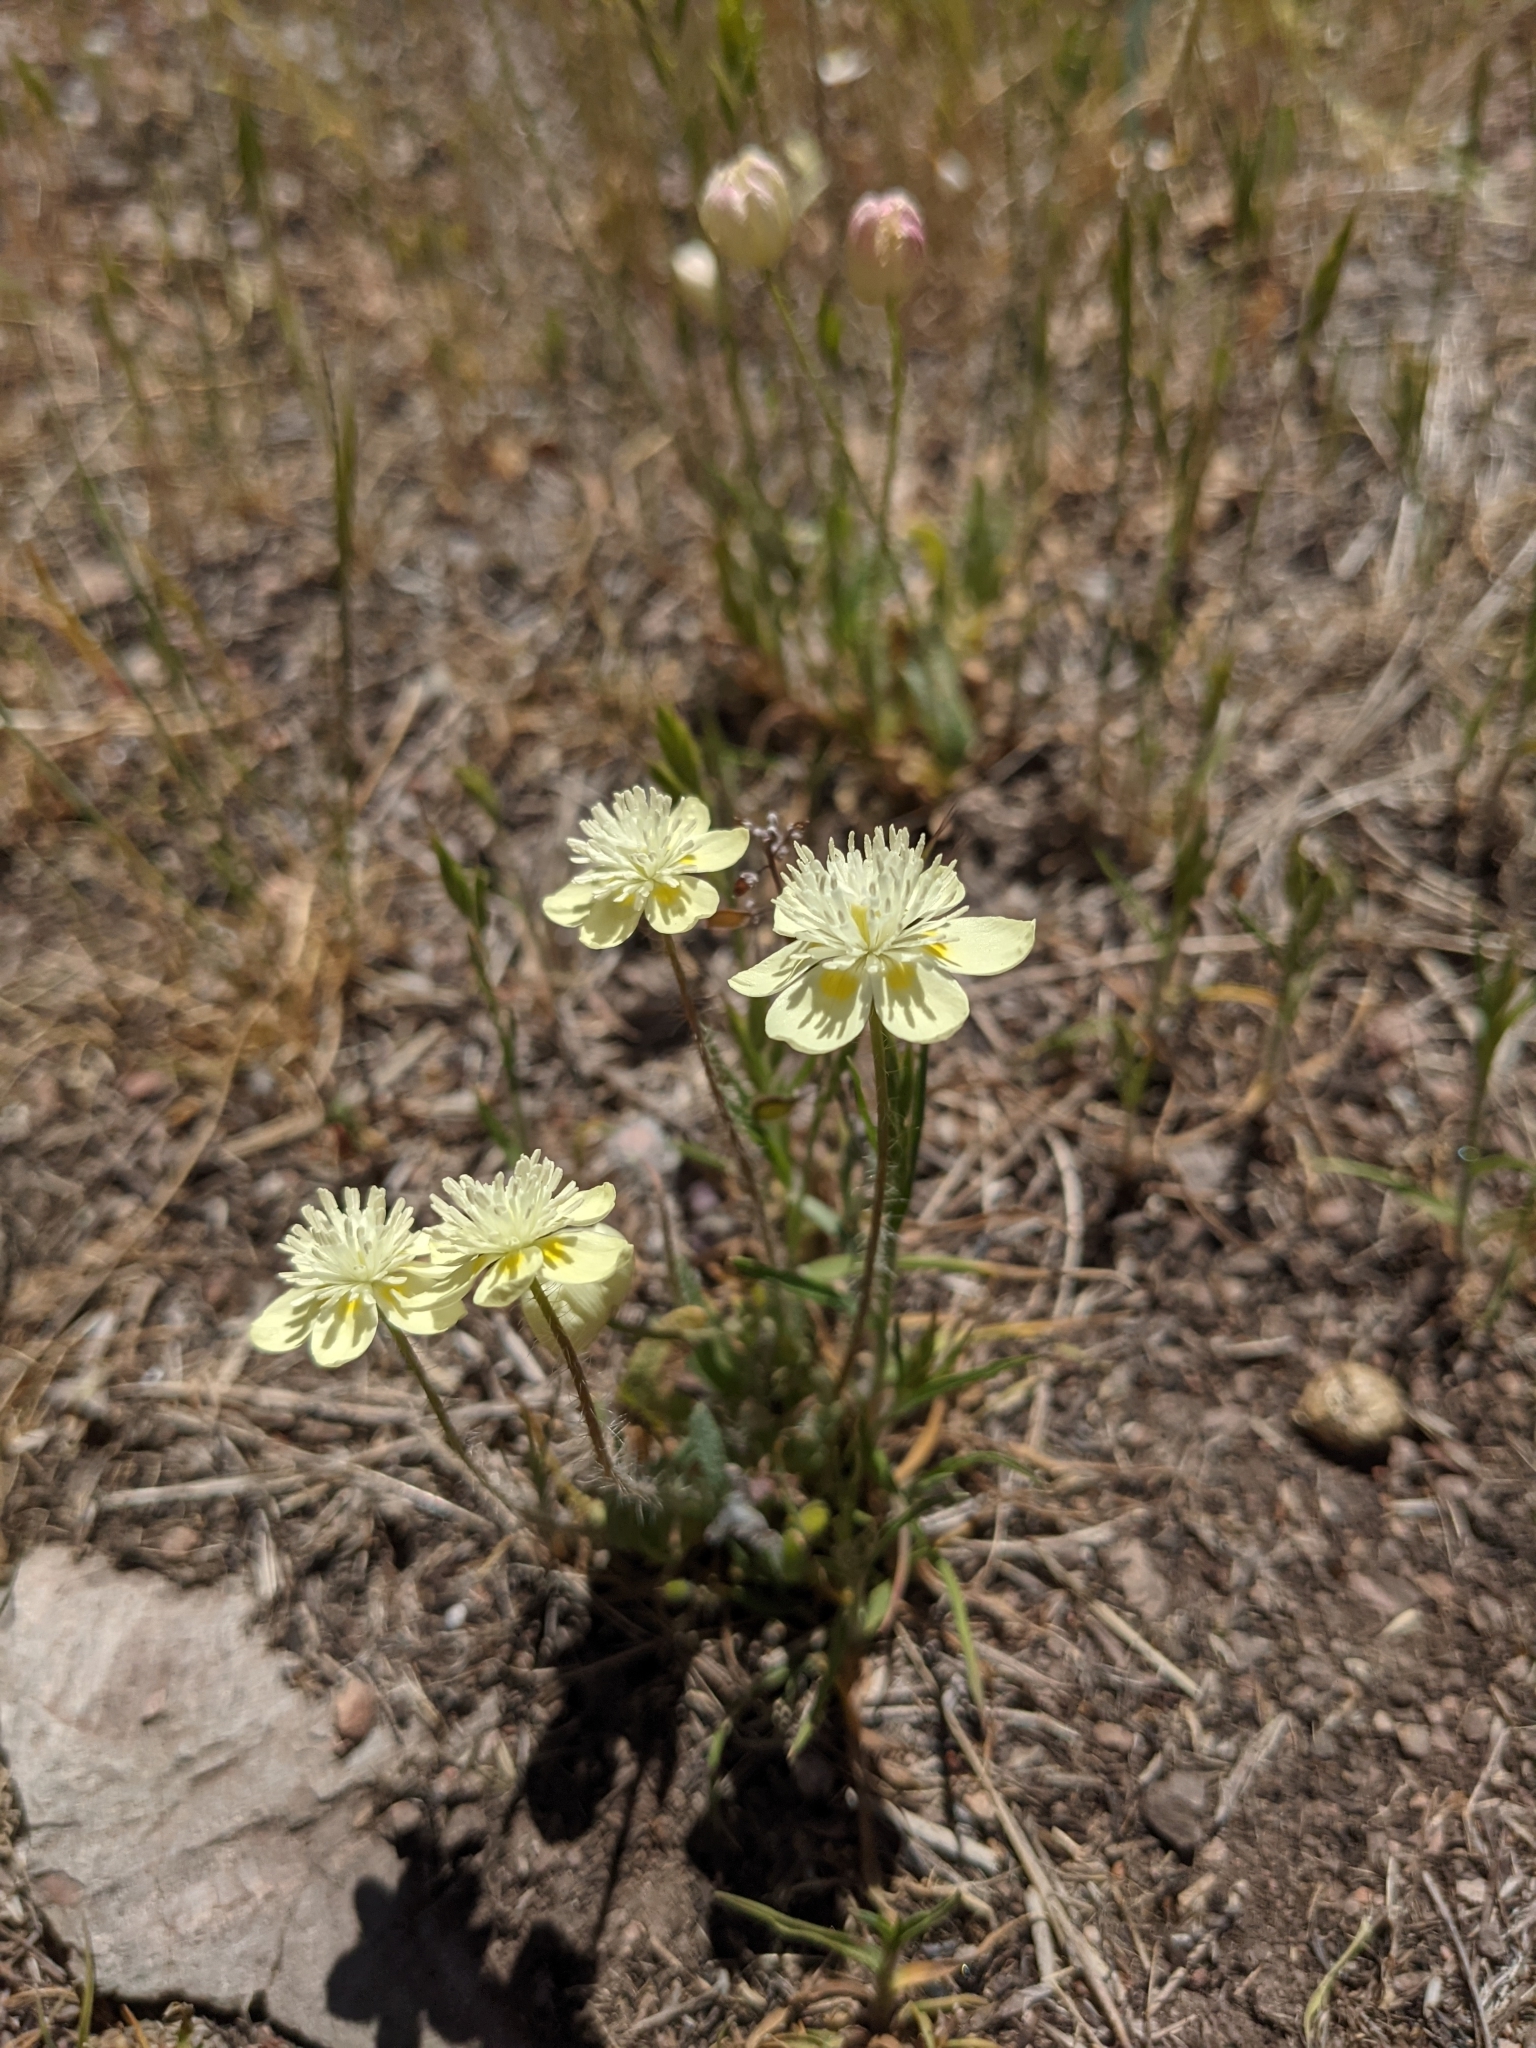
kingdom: Plantae
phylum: Tracheophyta
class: Magnoliopsida
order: Ranunculales
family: Papaveraceae
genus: Platystemon
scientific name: Platystemon californicus
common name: Cream-cups
